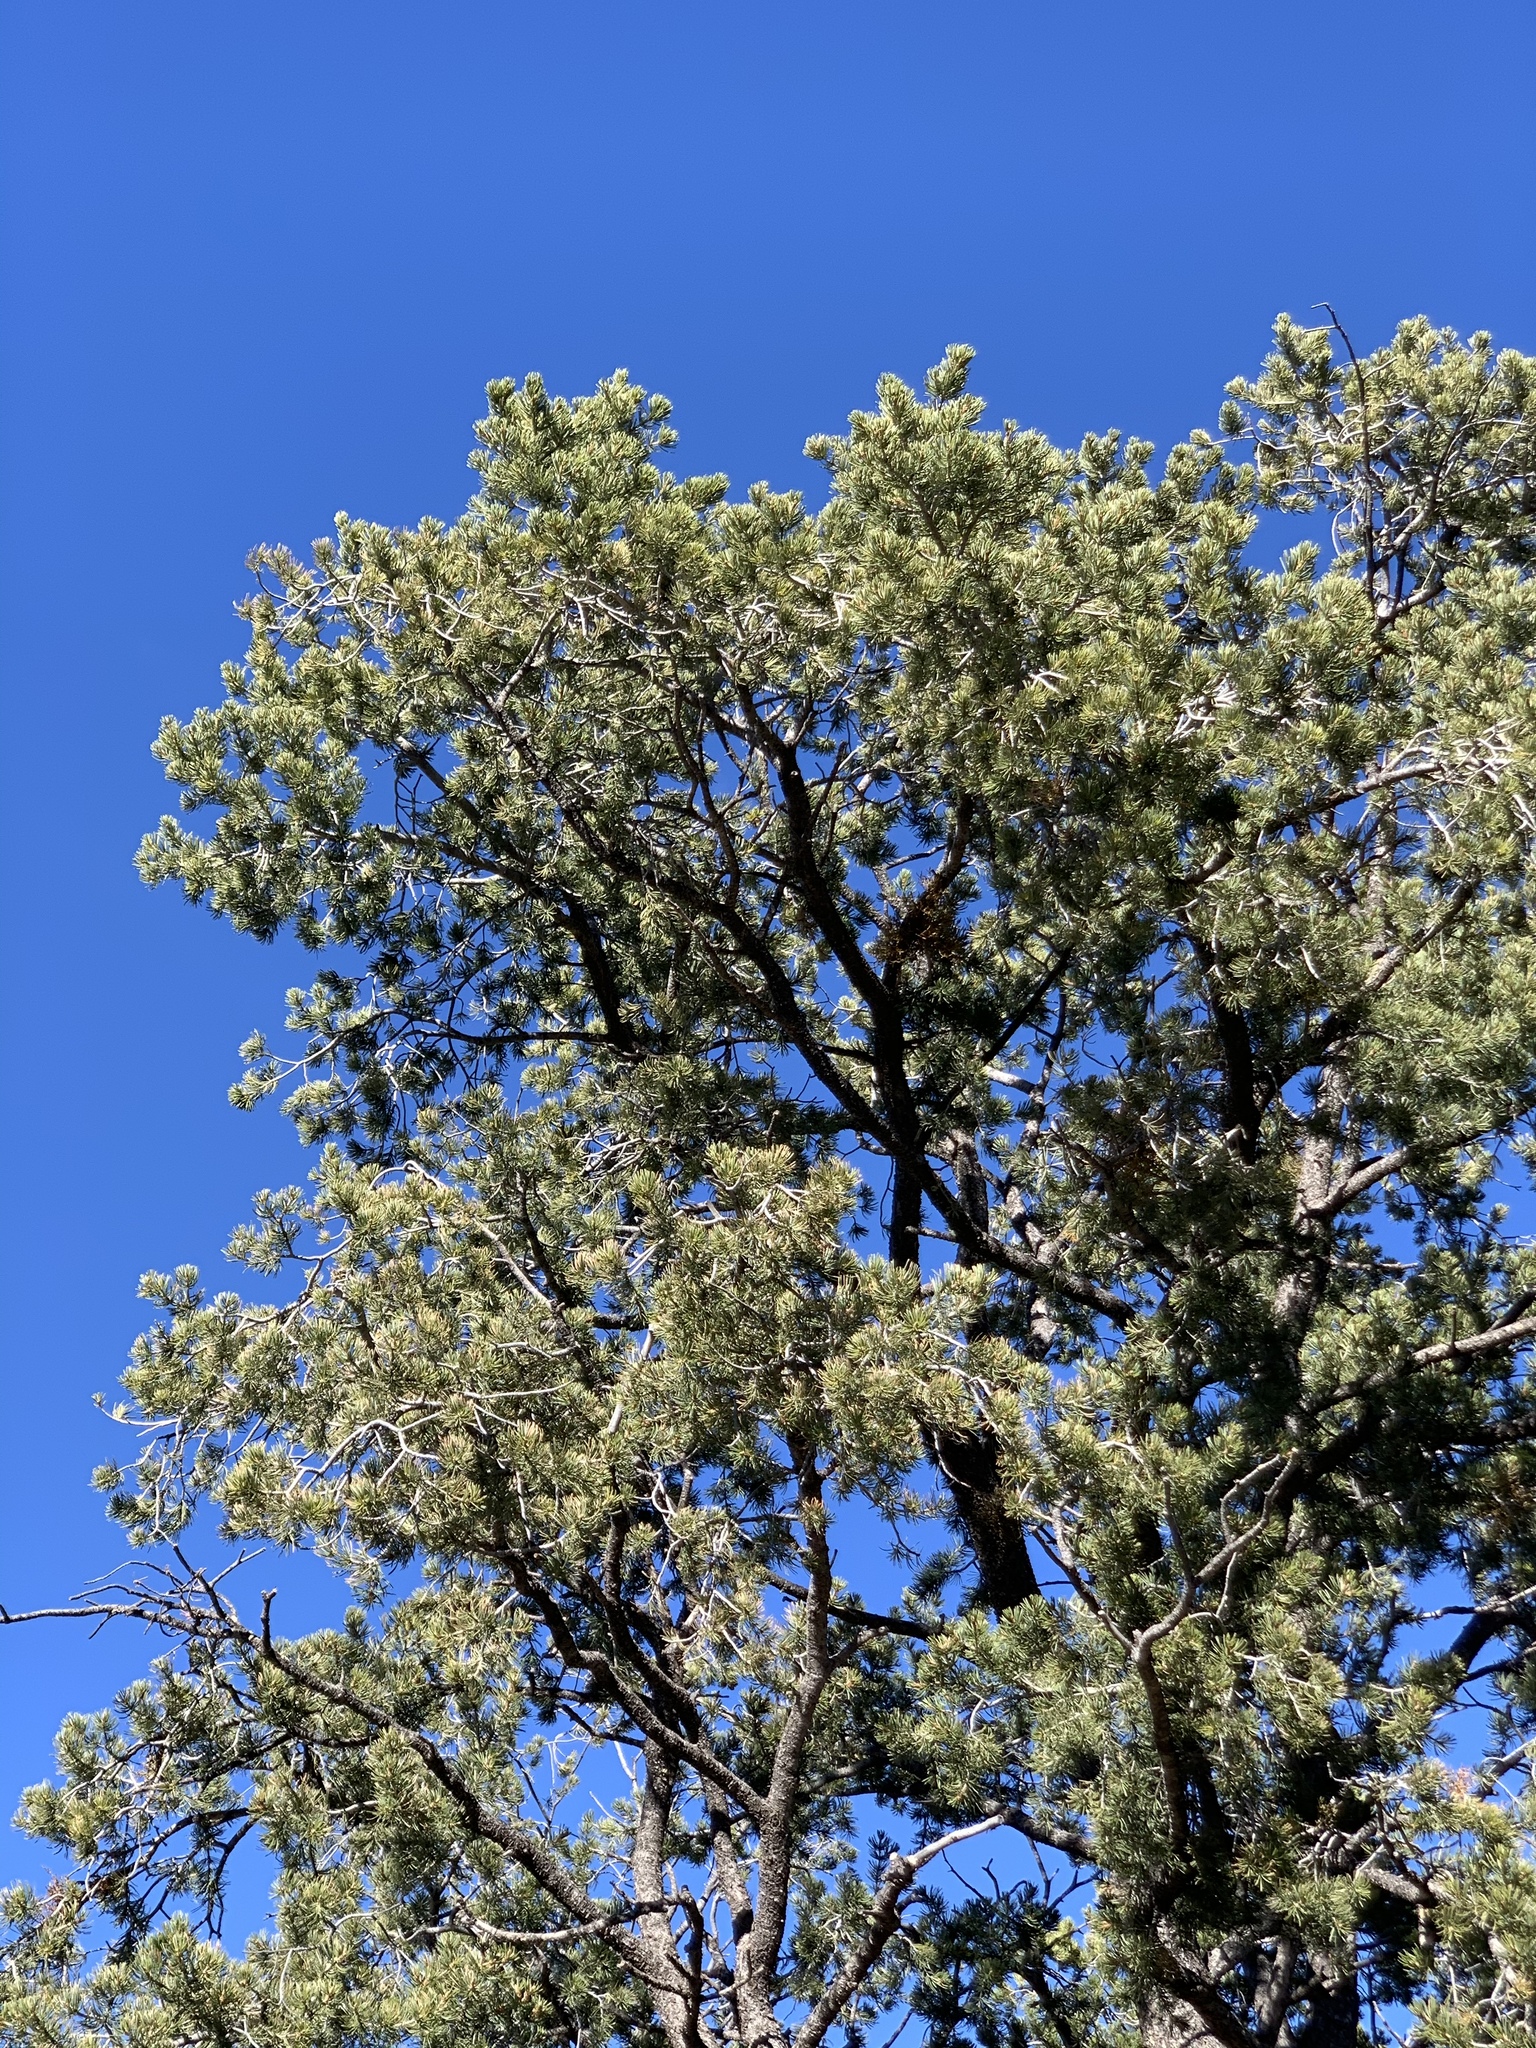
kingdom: Plantae
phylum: Tracheophyta
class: Pinopsida
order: Pinales
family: Pinaceae
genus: Pinus
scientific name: Pinus edulis
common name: Colorado pinyon
